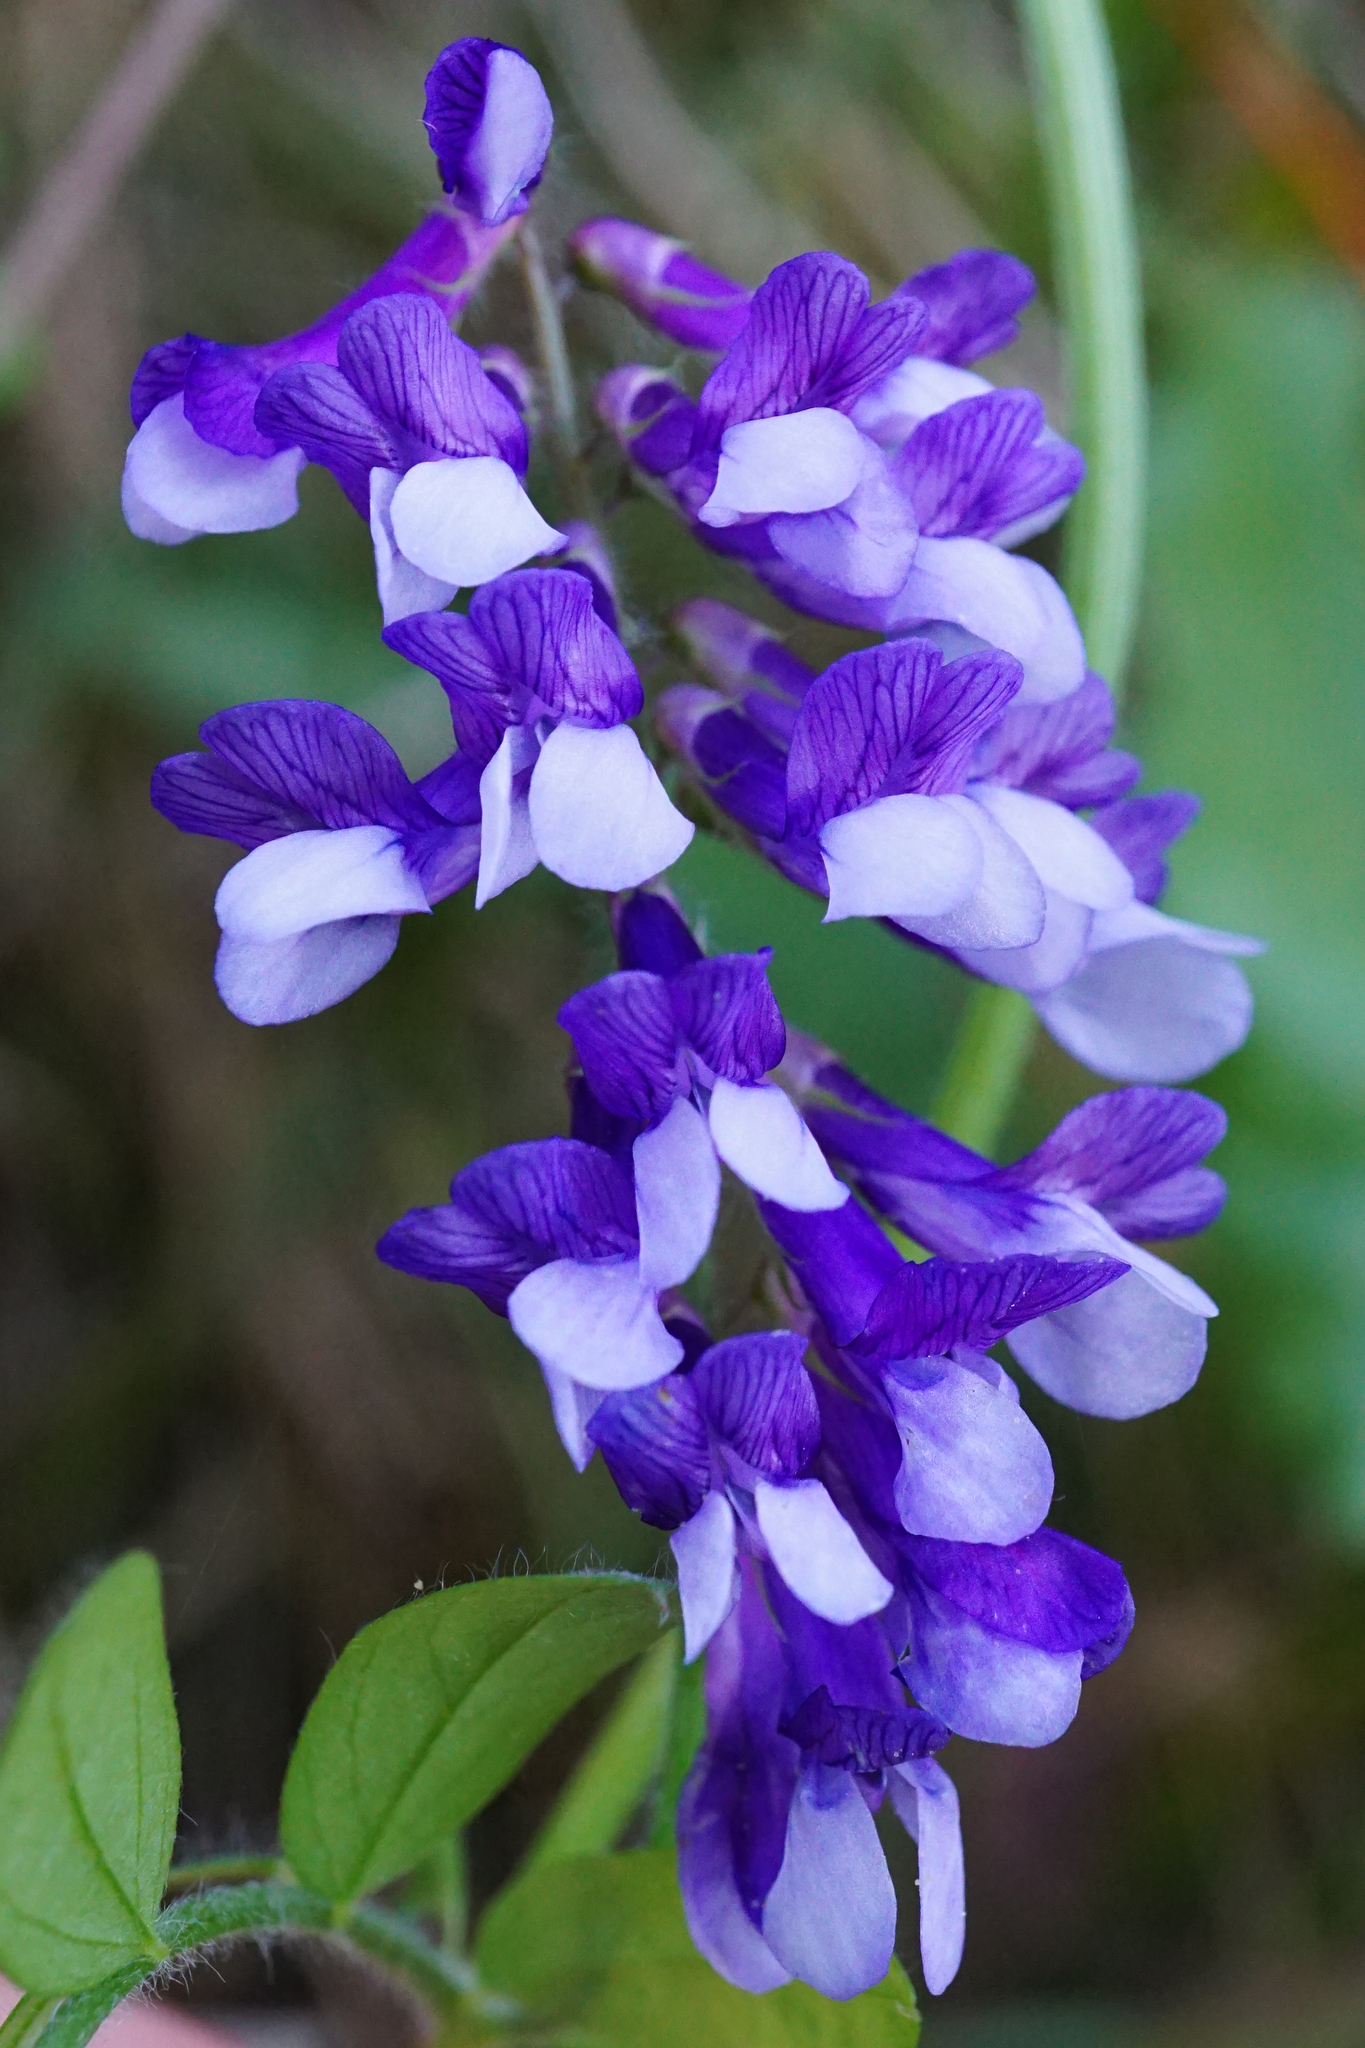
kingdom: Plantae
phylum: Tracheophyta
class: Magnoliopsida
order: Fabales
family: Fabaceae
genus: Vicia
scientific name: Vicia villosa
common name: Fodder vetch
